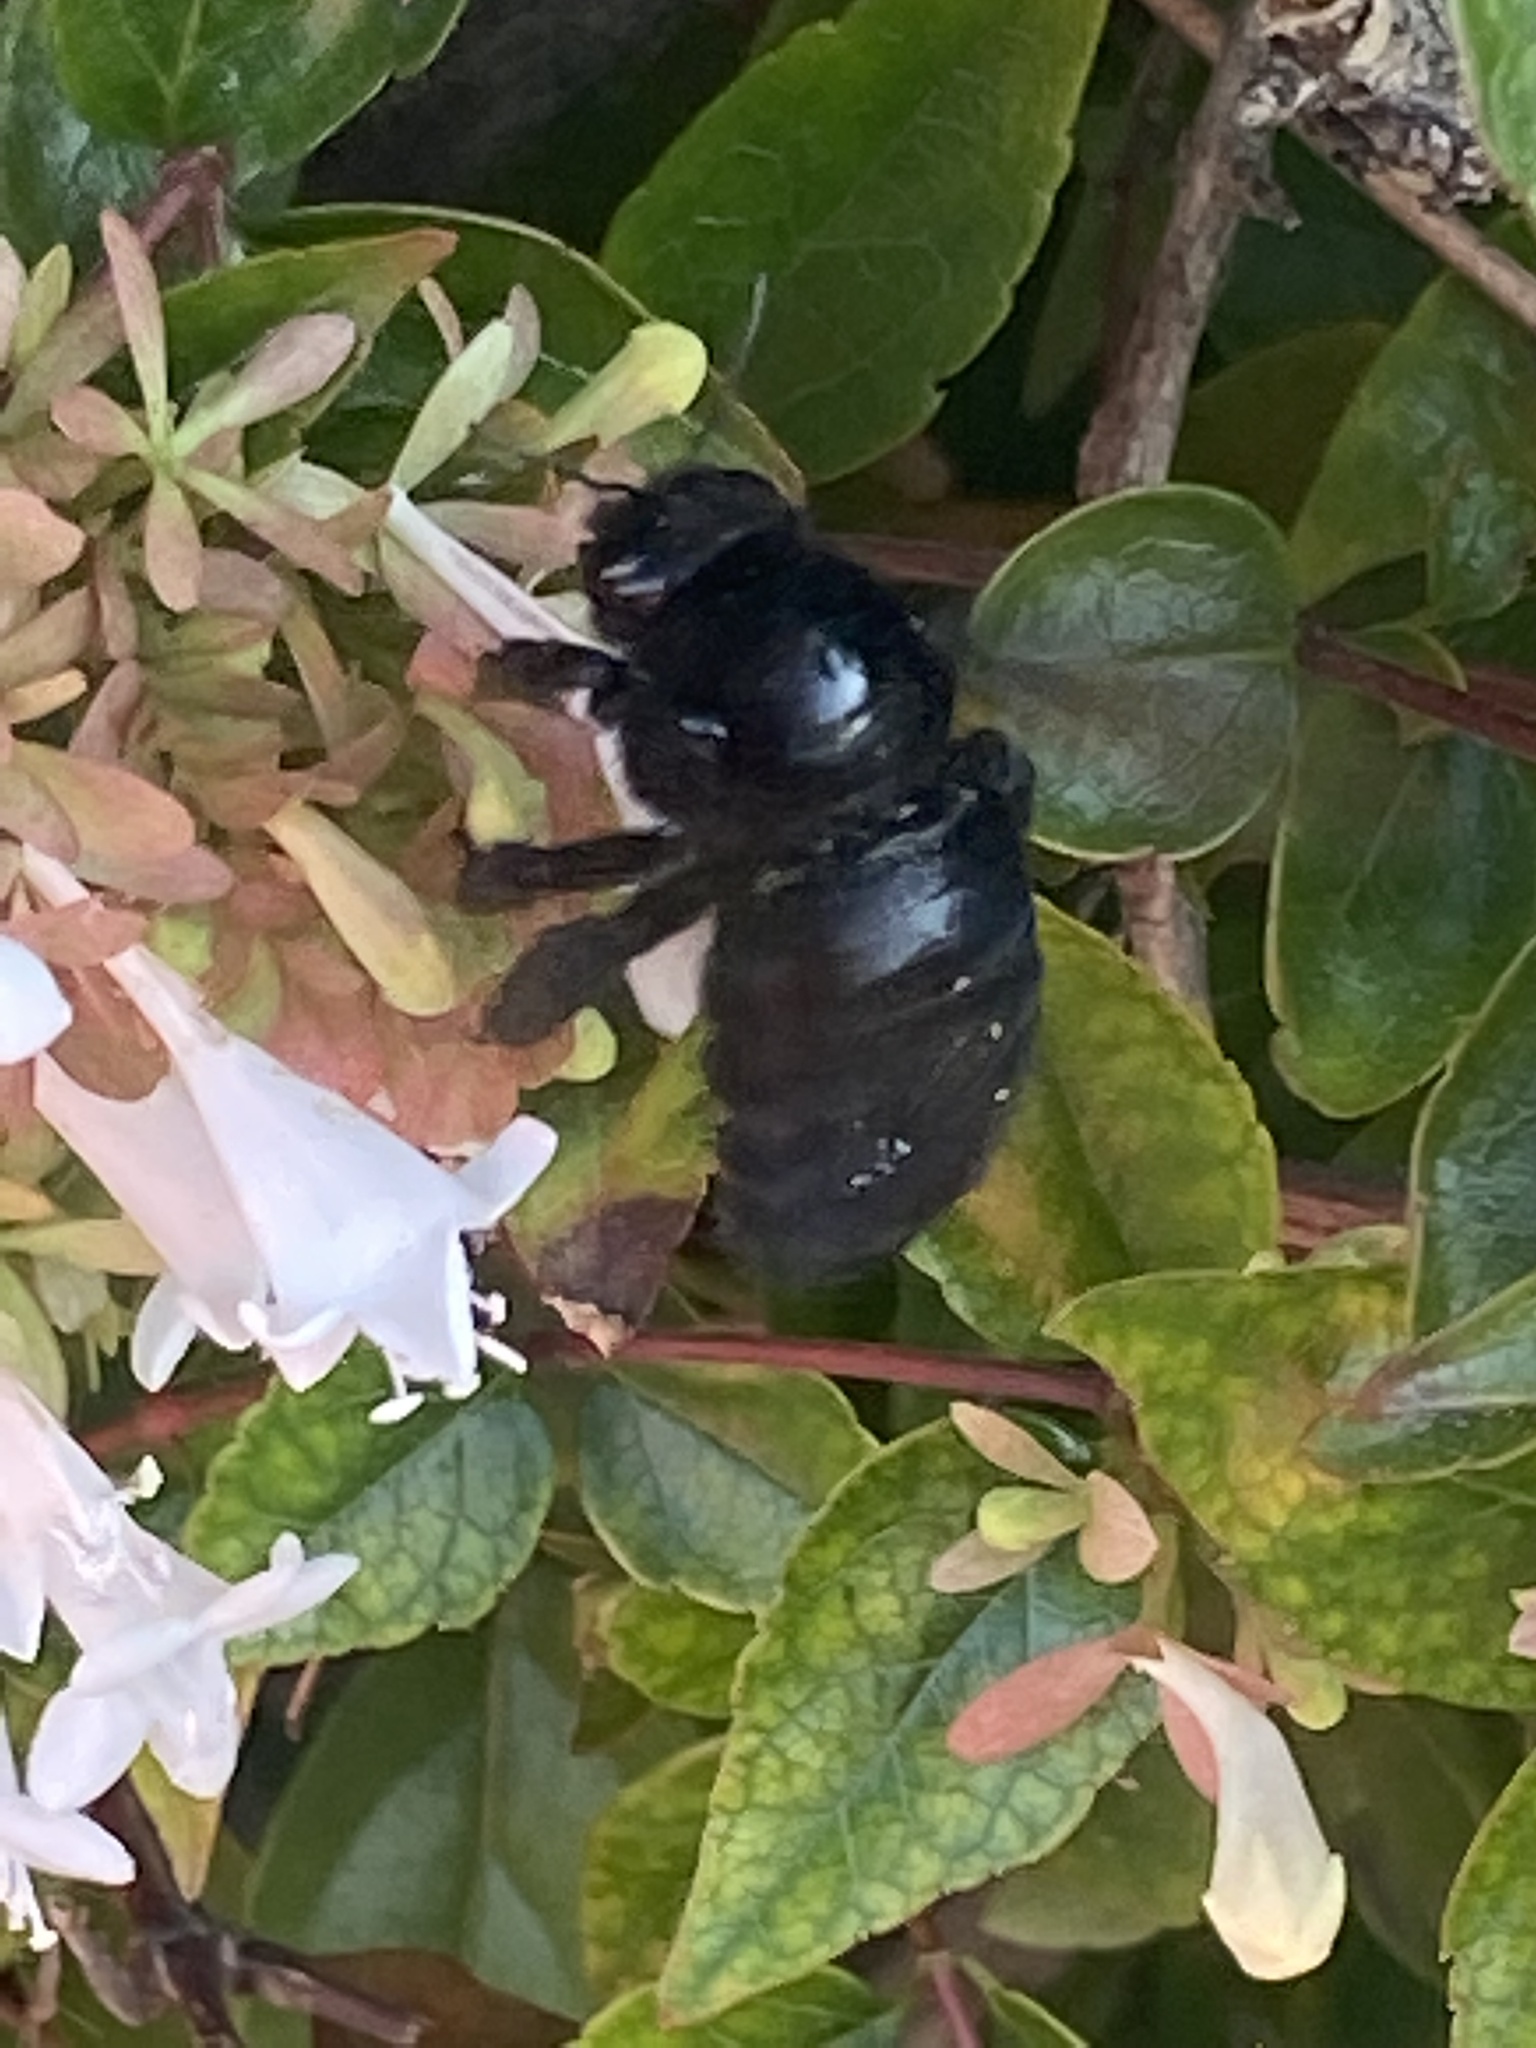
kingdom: Animalia
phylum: Arthropoda
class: Insecta
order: Hymenoptera
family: Apidae
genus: Xylocopa
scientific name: Xylocopa sonorina
